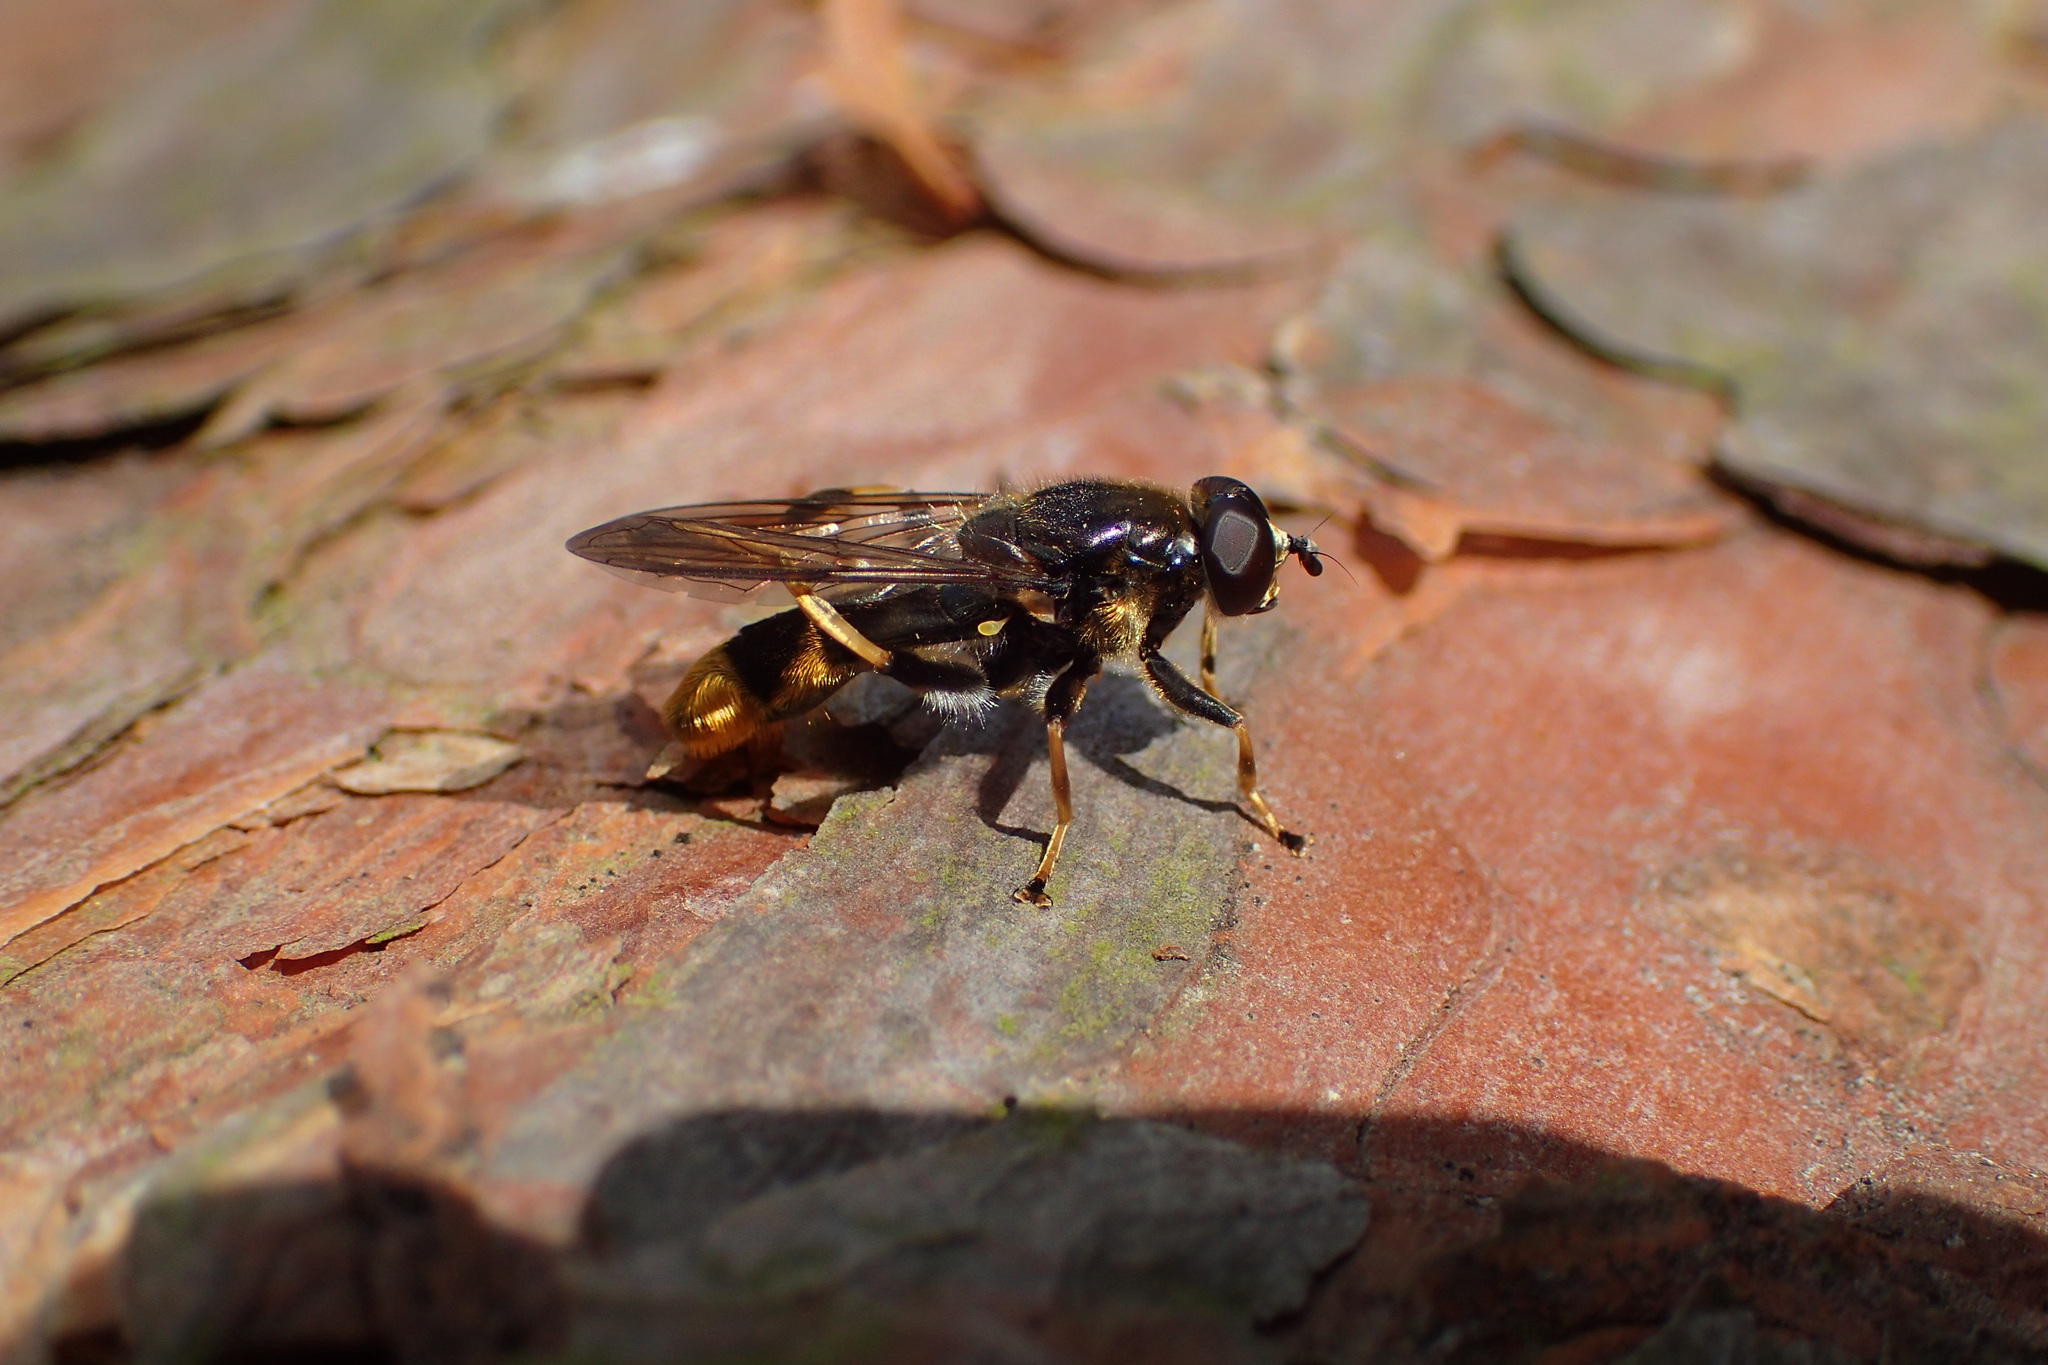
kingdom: Animalia
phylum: Arthropoda
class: Insecta
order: Diptera
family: Syrphidae
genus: Xylota
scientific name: Xylota sylvarum
